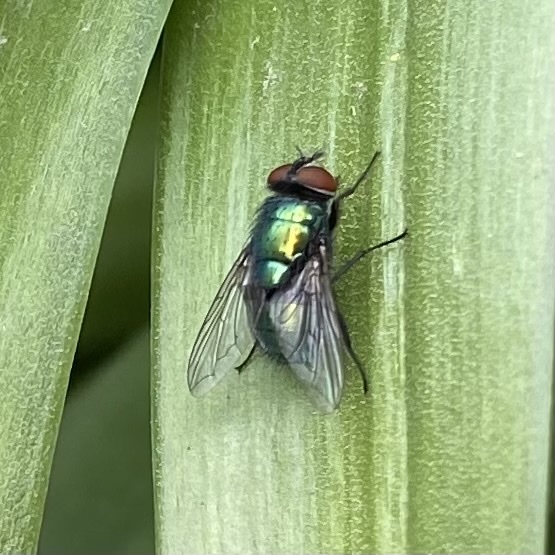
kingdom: Animalia
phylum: Arthropoda
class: Insecta
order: Diptera
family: Calliphoridae
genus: Lucilia
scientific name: Lucilia
